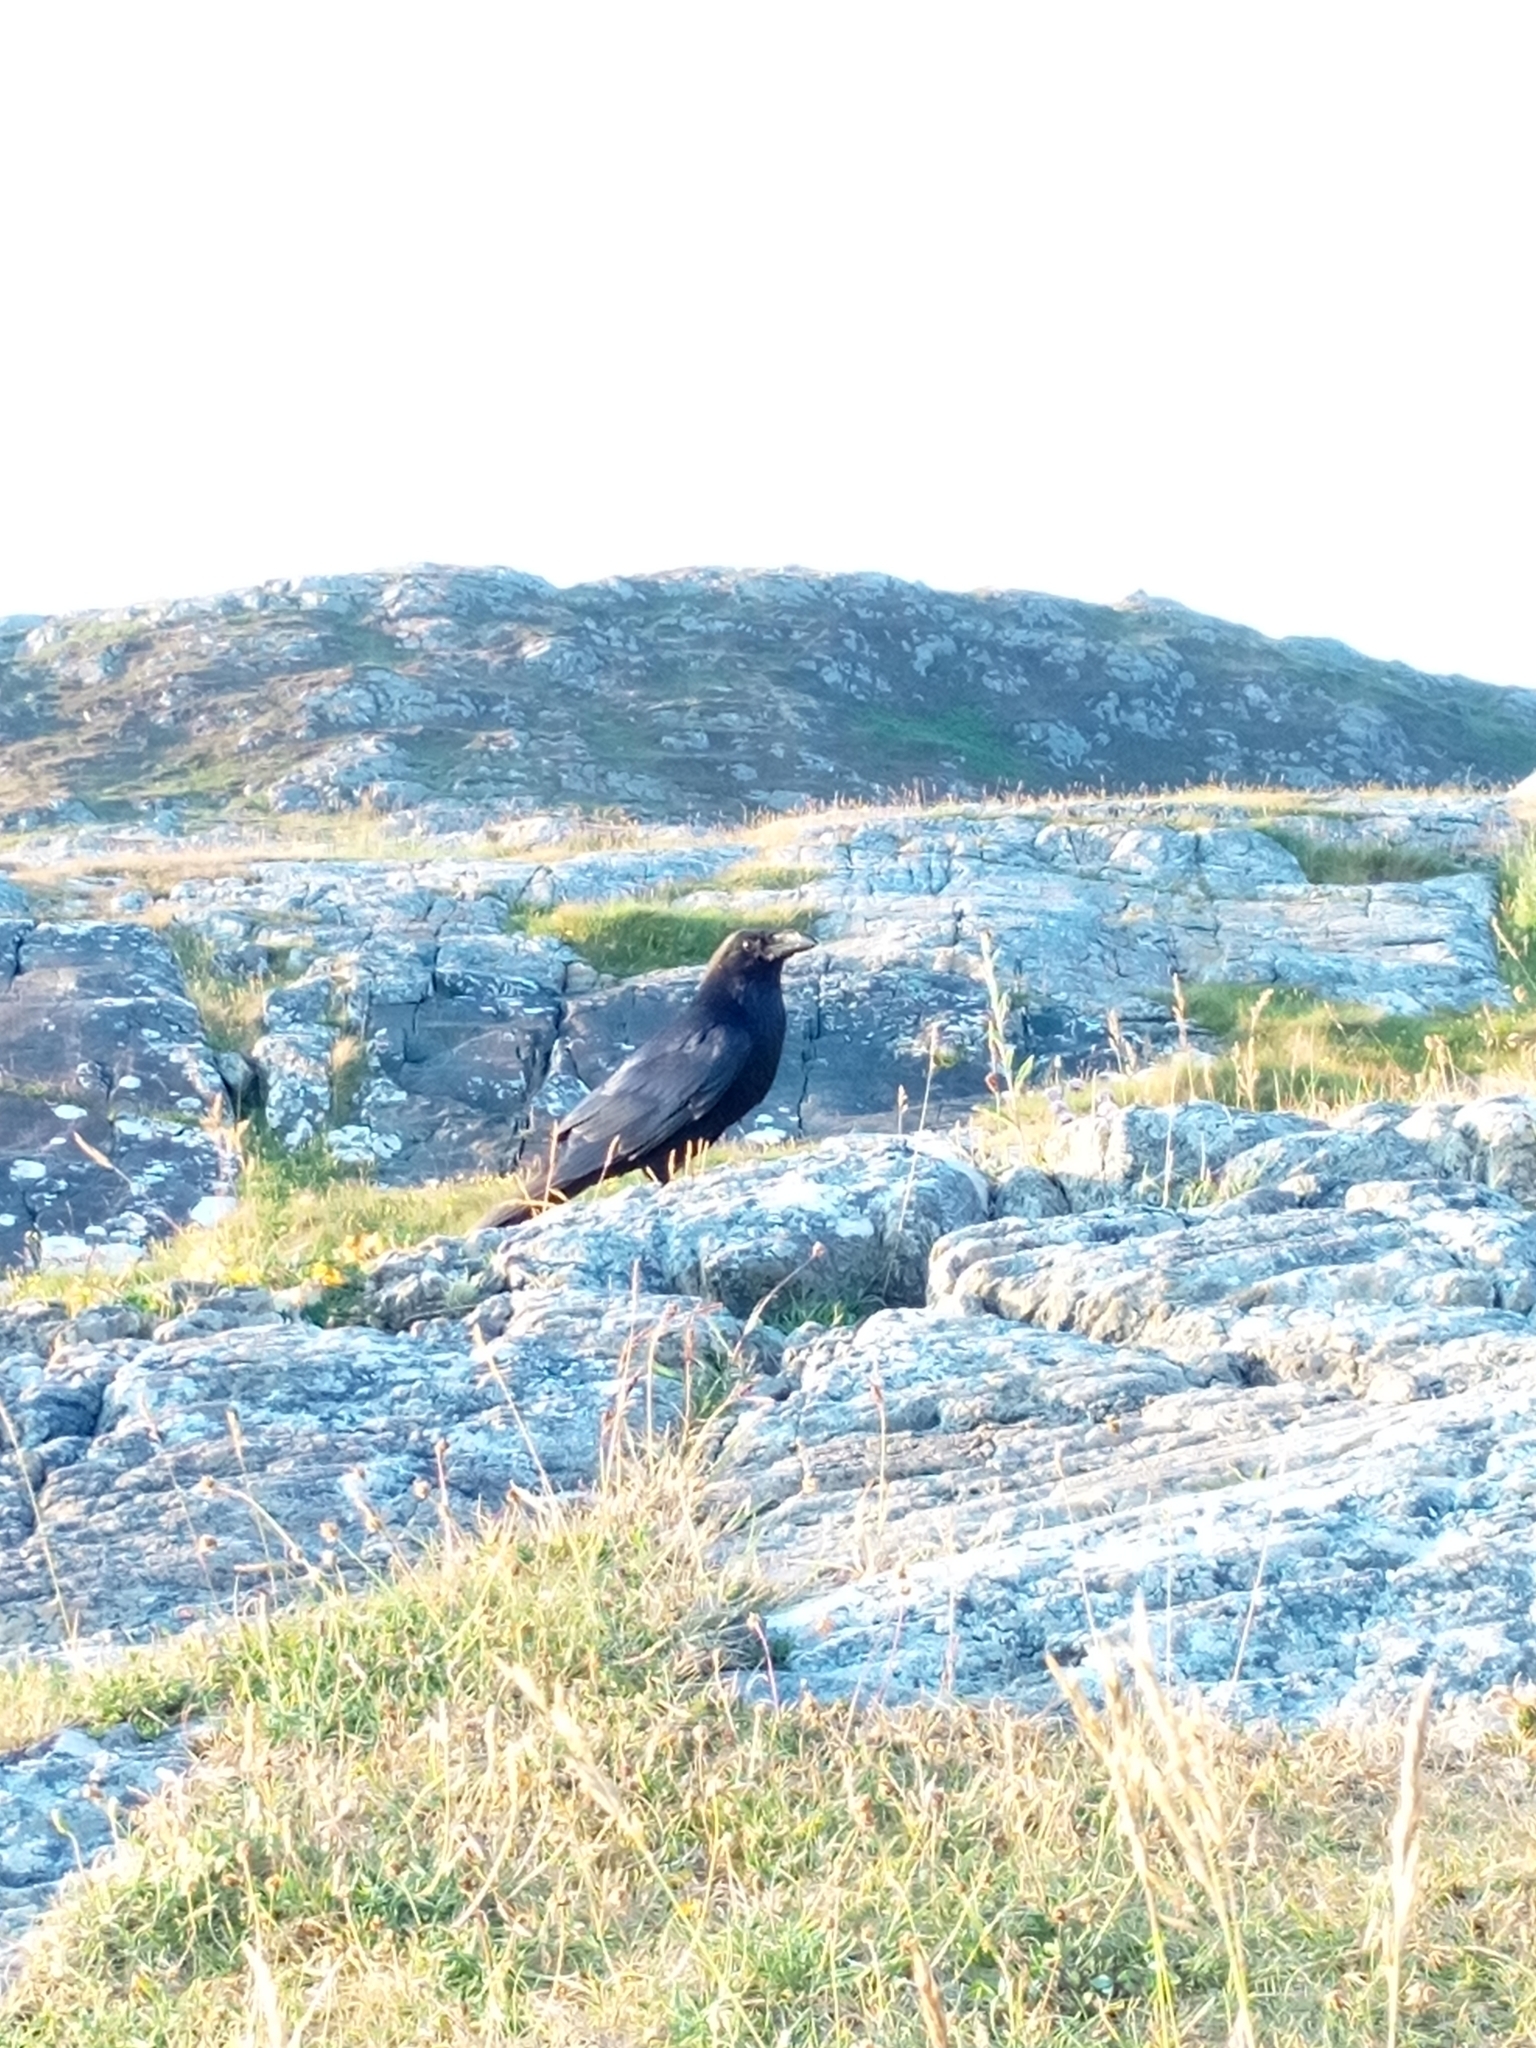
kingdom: Animalia
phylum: Chordata
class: Aves
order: Passeriformes
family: Corvidae
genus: Corvus
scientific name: Corvus corax
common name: Common raven
